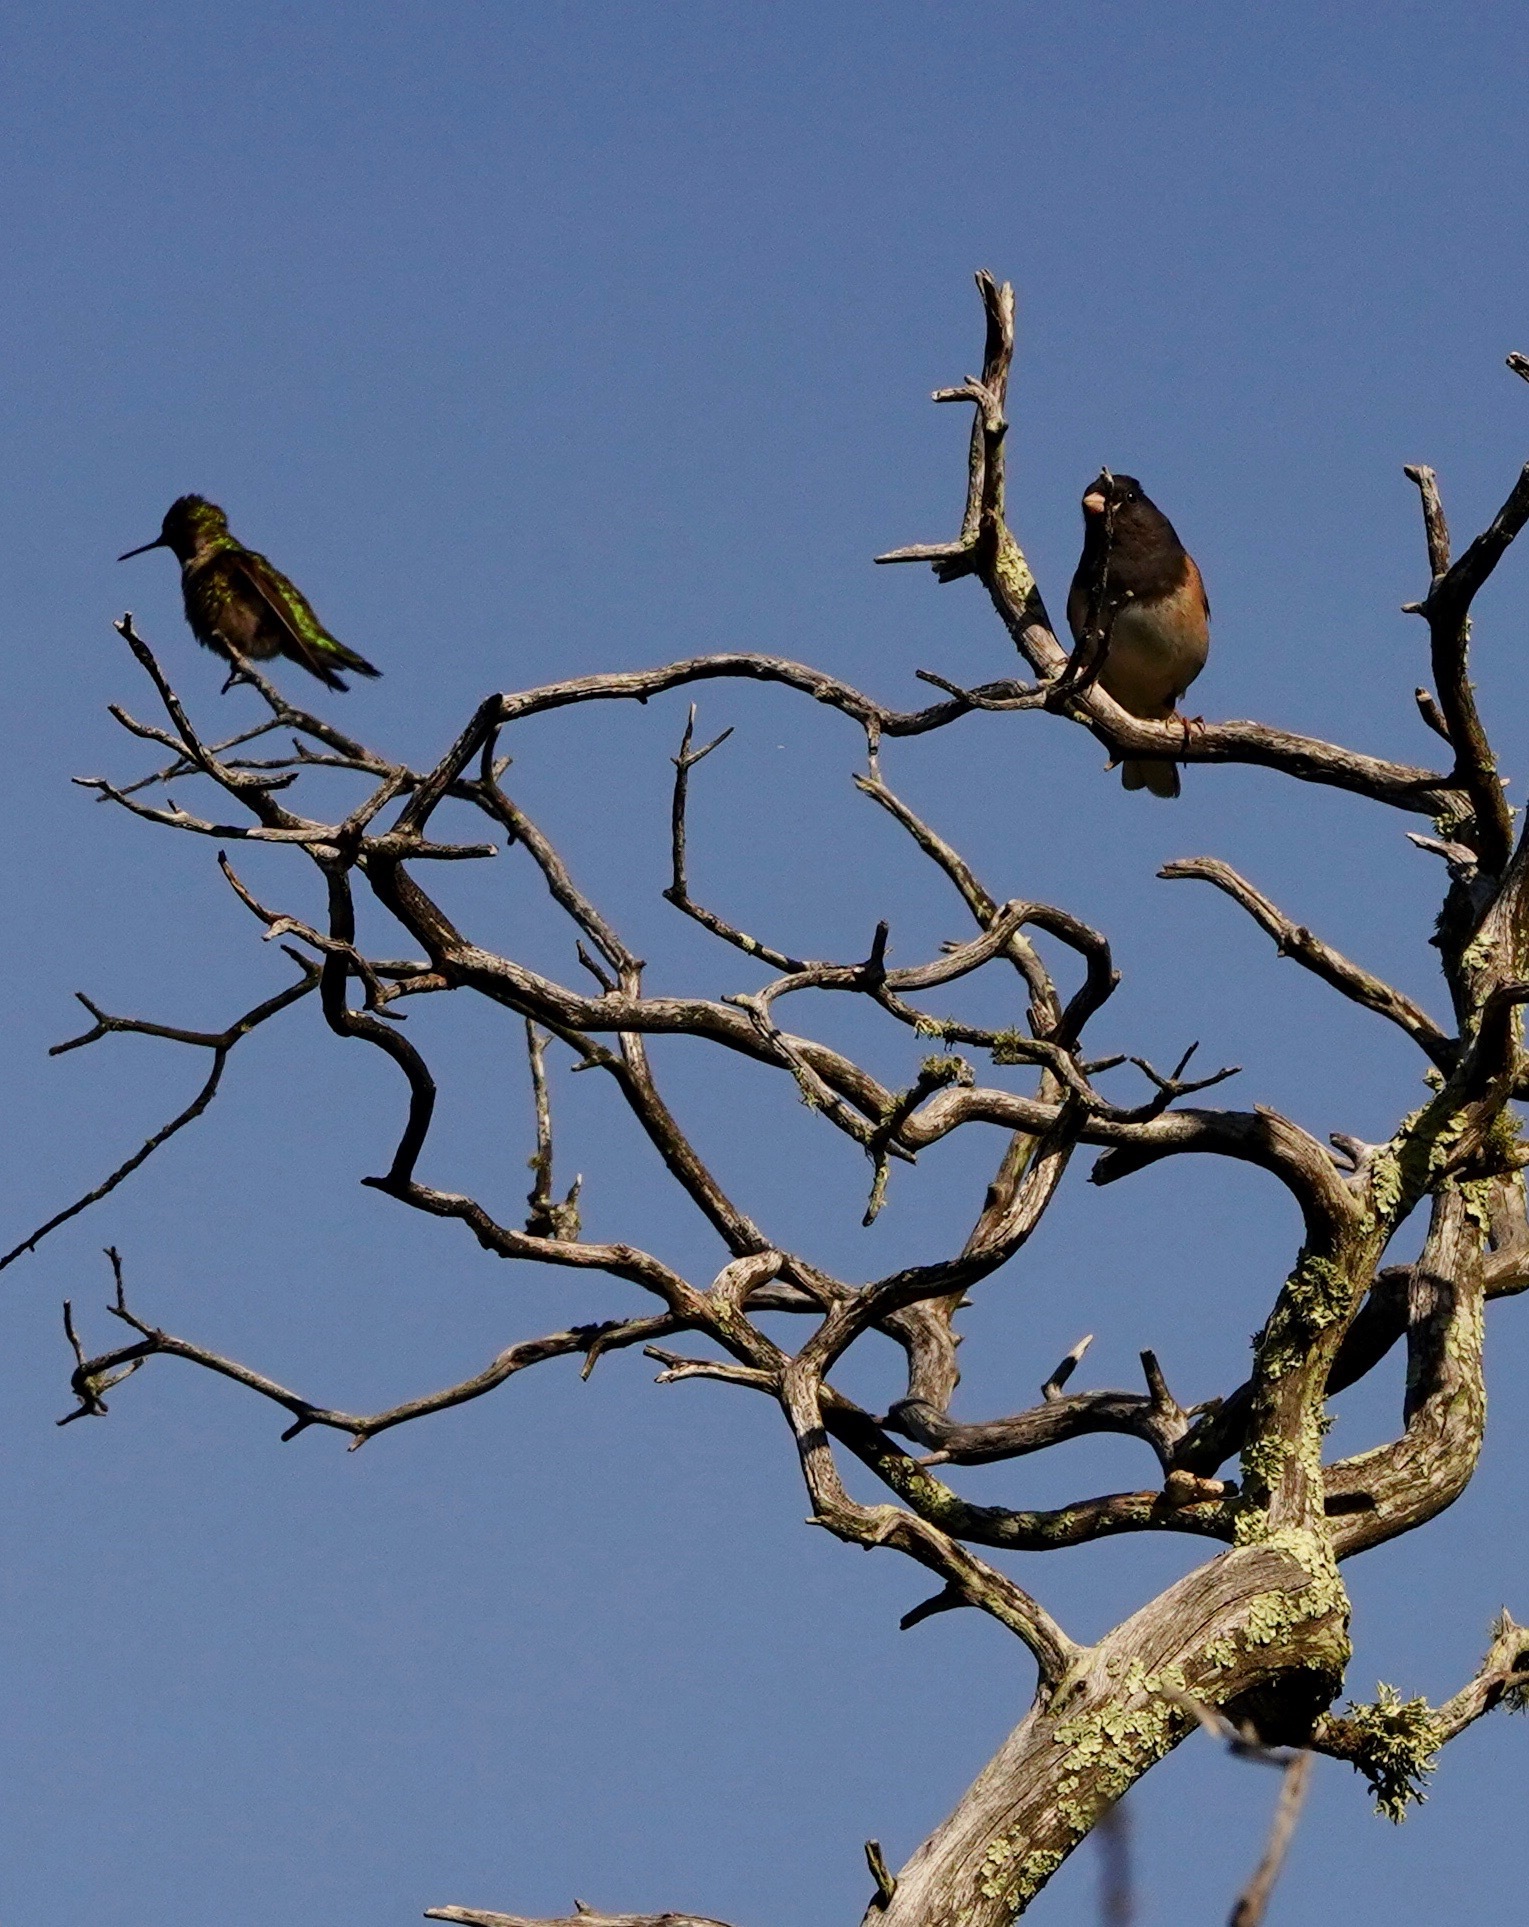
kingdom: Animalia
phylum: Chordata
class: Aves
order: Passeriformes
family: Passerellidae
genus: Junco
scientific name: Junco hyemalis
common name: Dark-eyed junco
